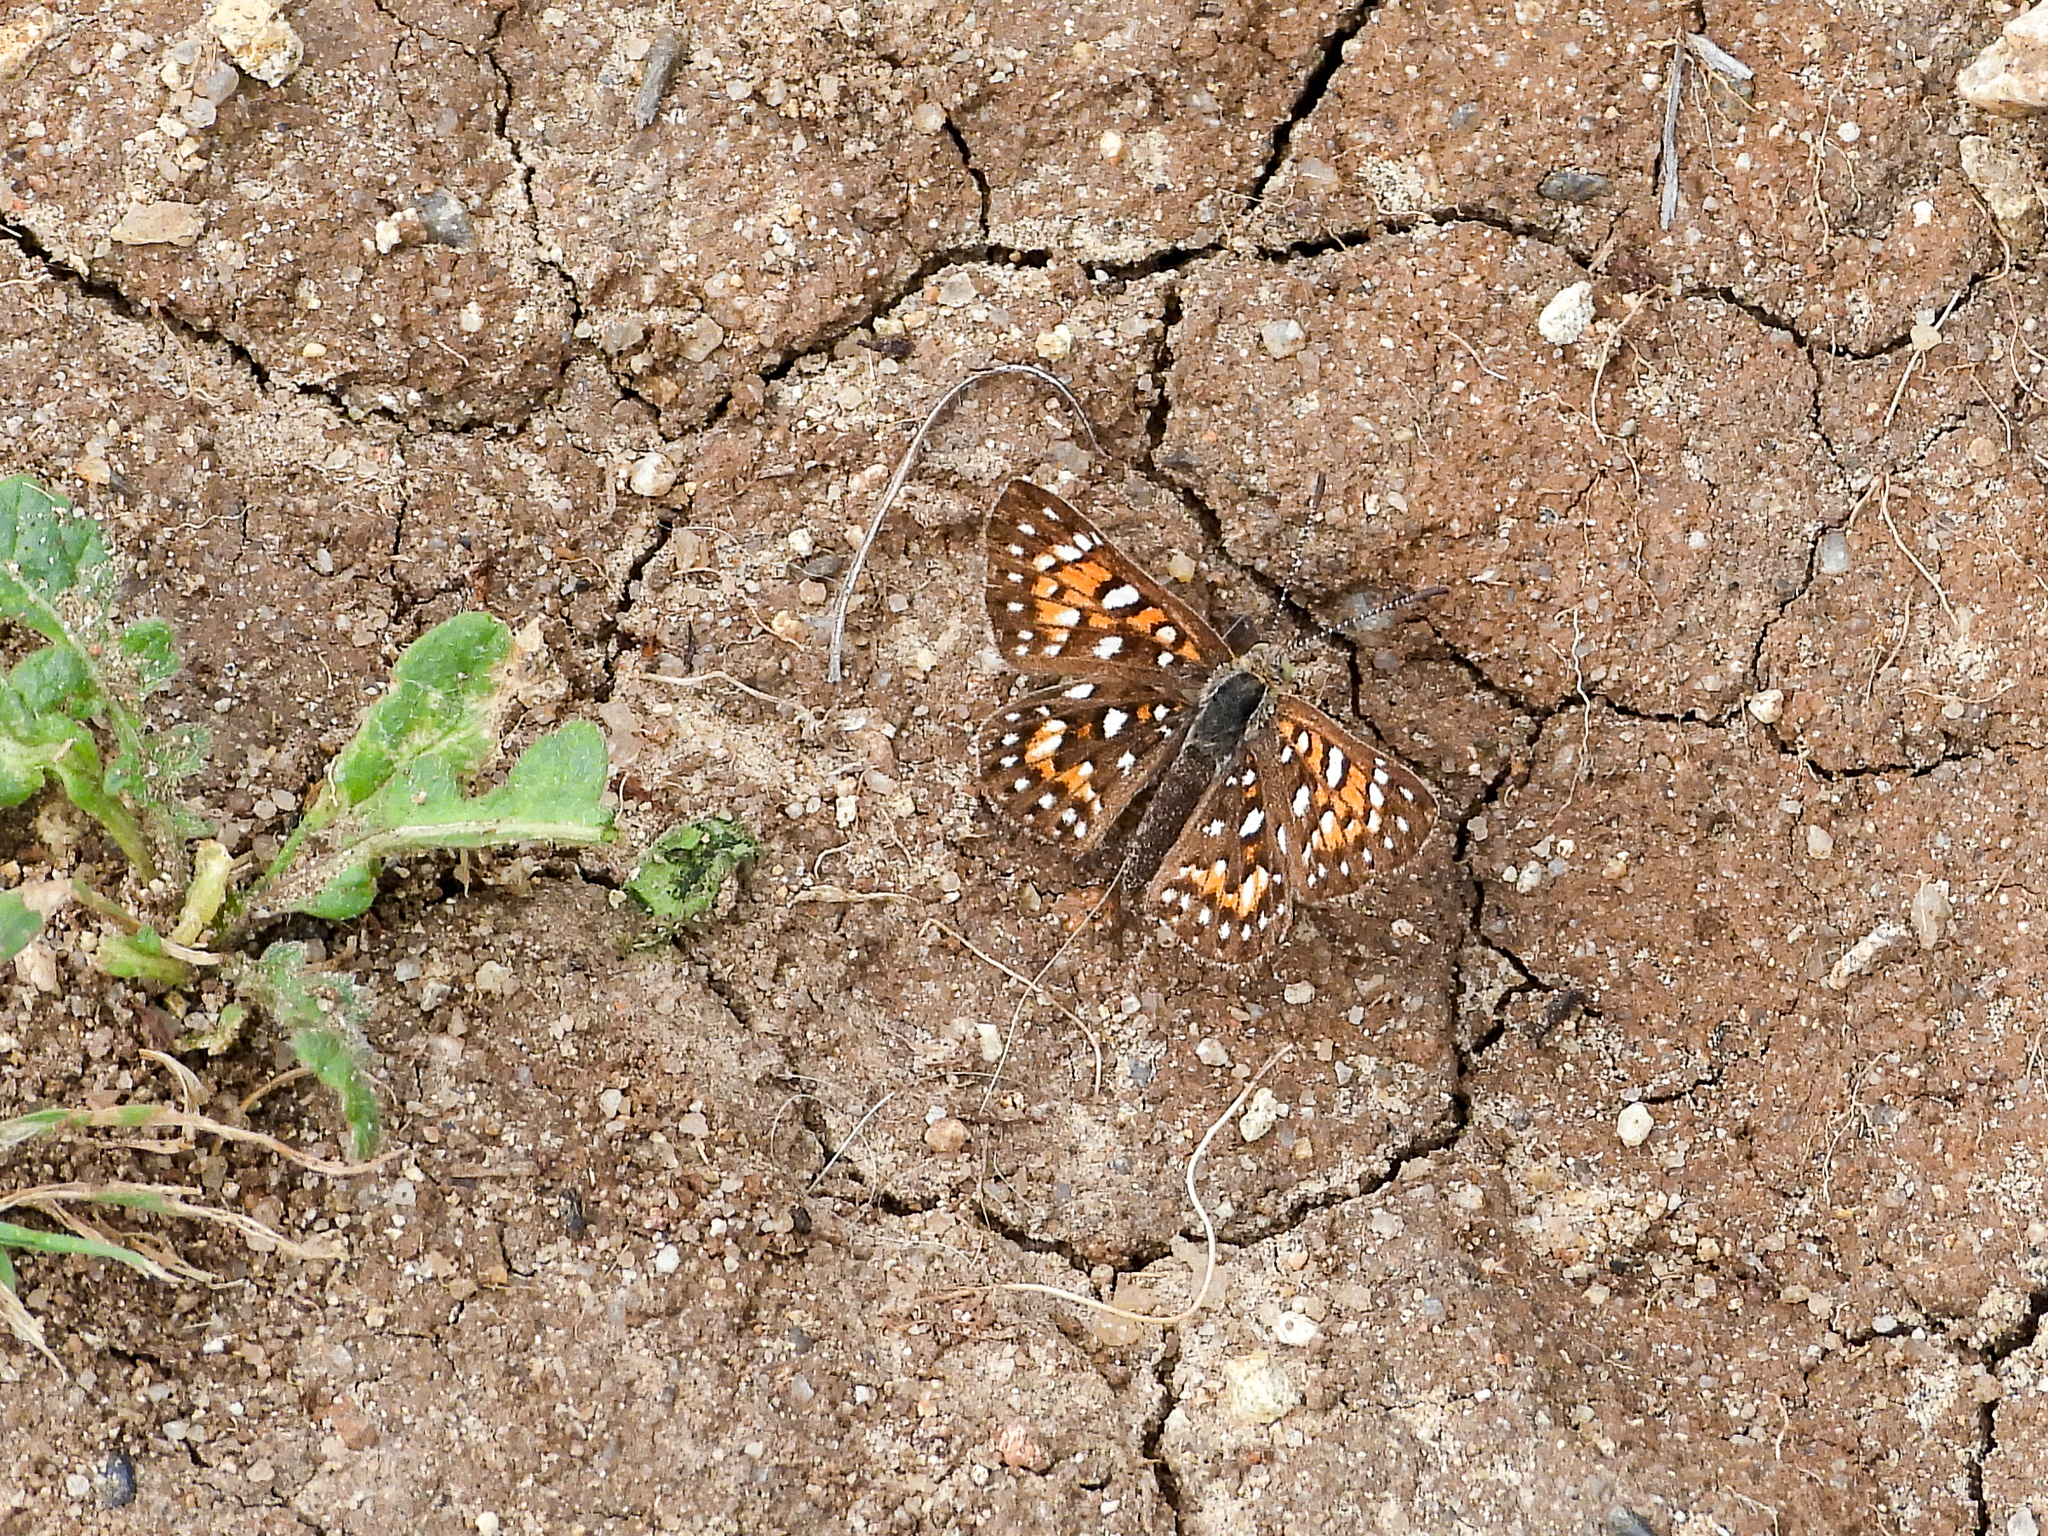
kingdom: Animalia
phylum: Arthropoda
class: Insecta
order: Lepidoptera
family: Riodinidae
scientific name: Riodinidae
